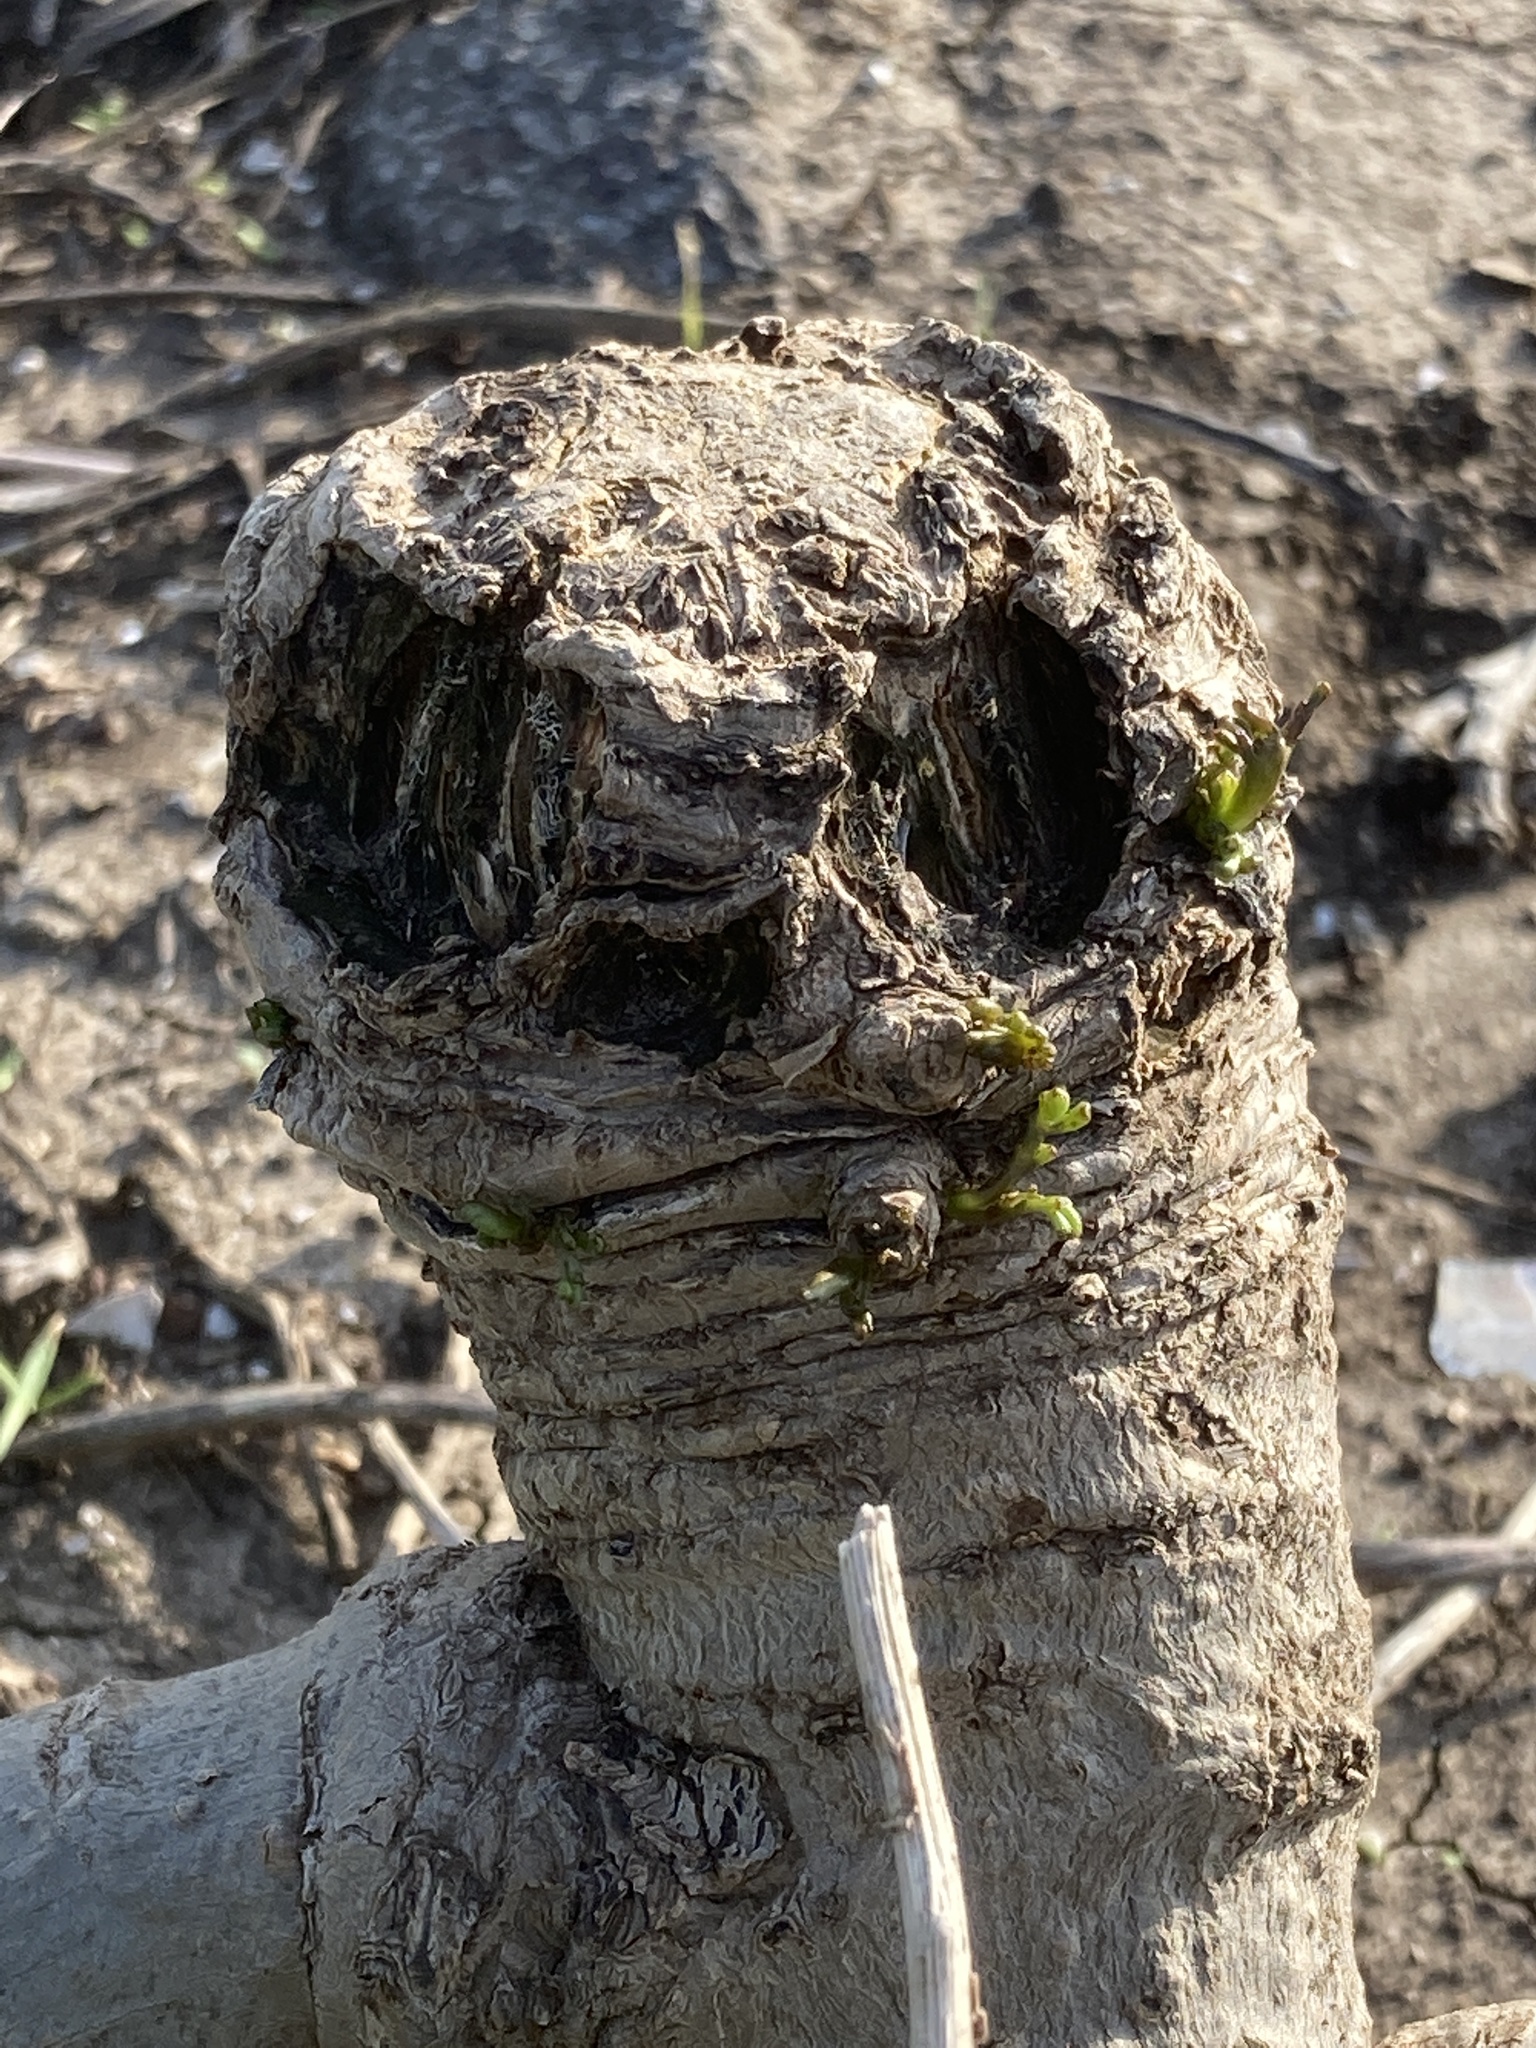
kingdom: Plantae
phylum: Tracheophyta
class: Magnoliopsida
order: Asterales
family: Asteraceae
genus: Coreopsis
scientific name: Coreopsis gigantea
